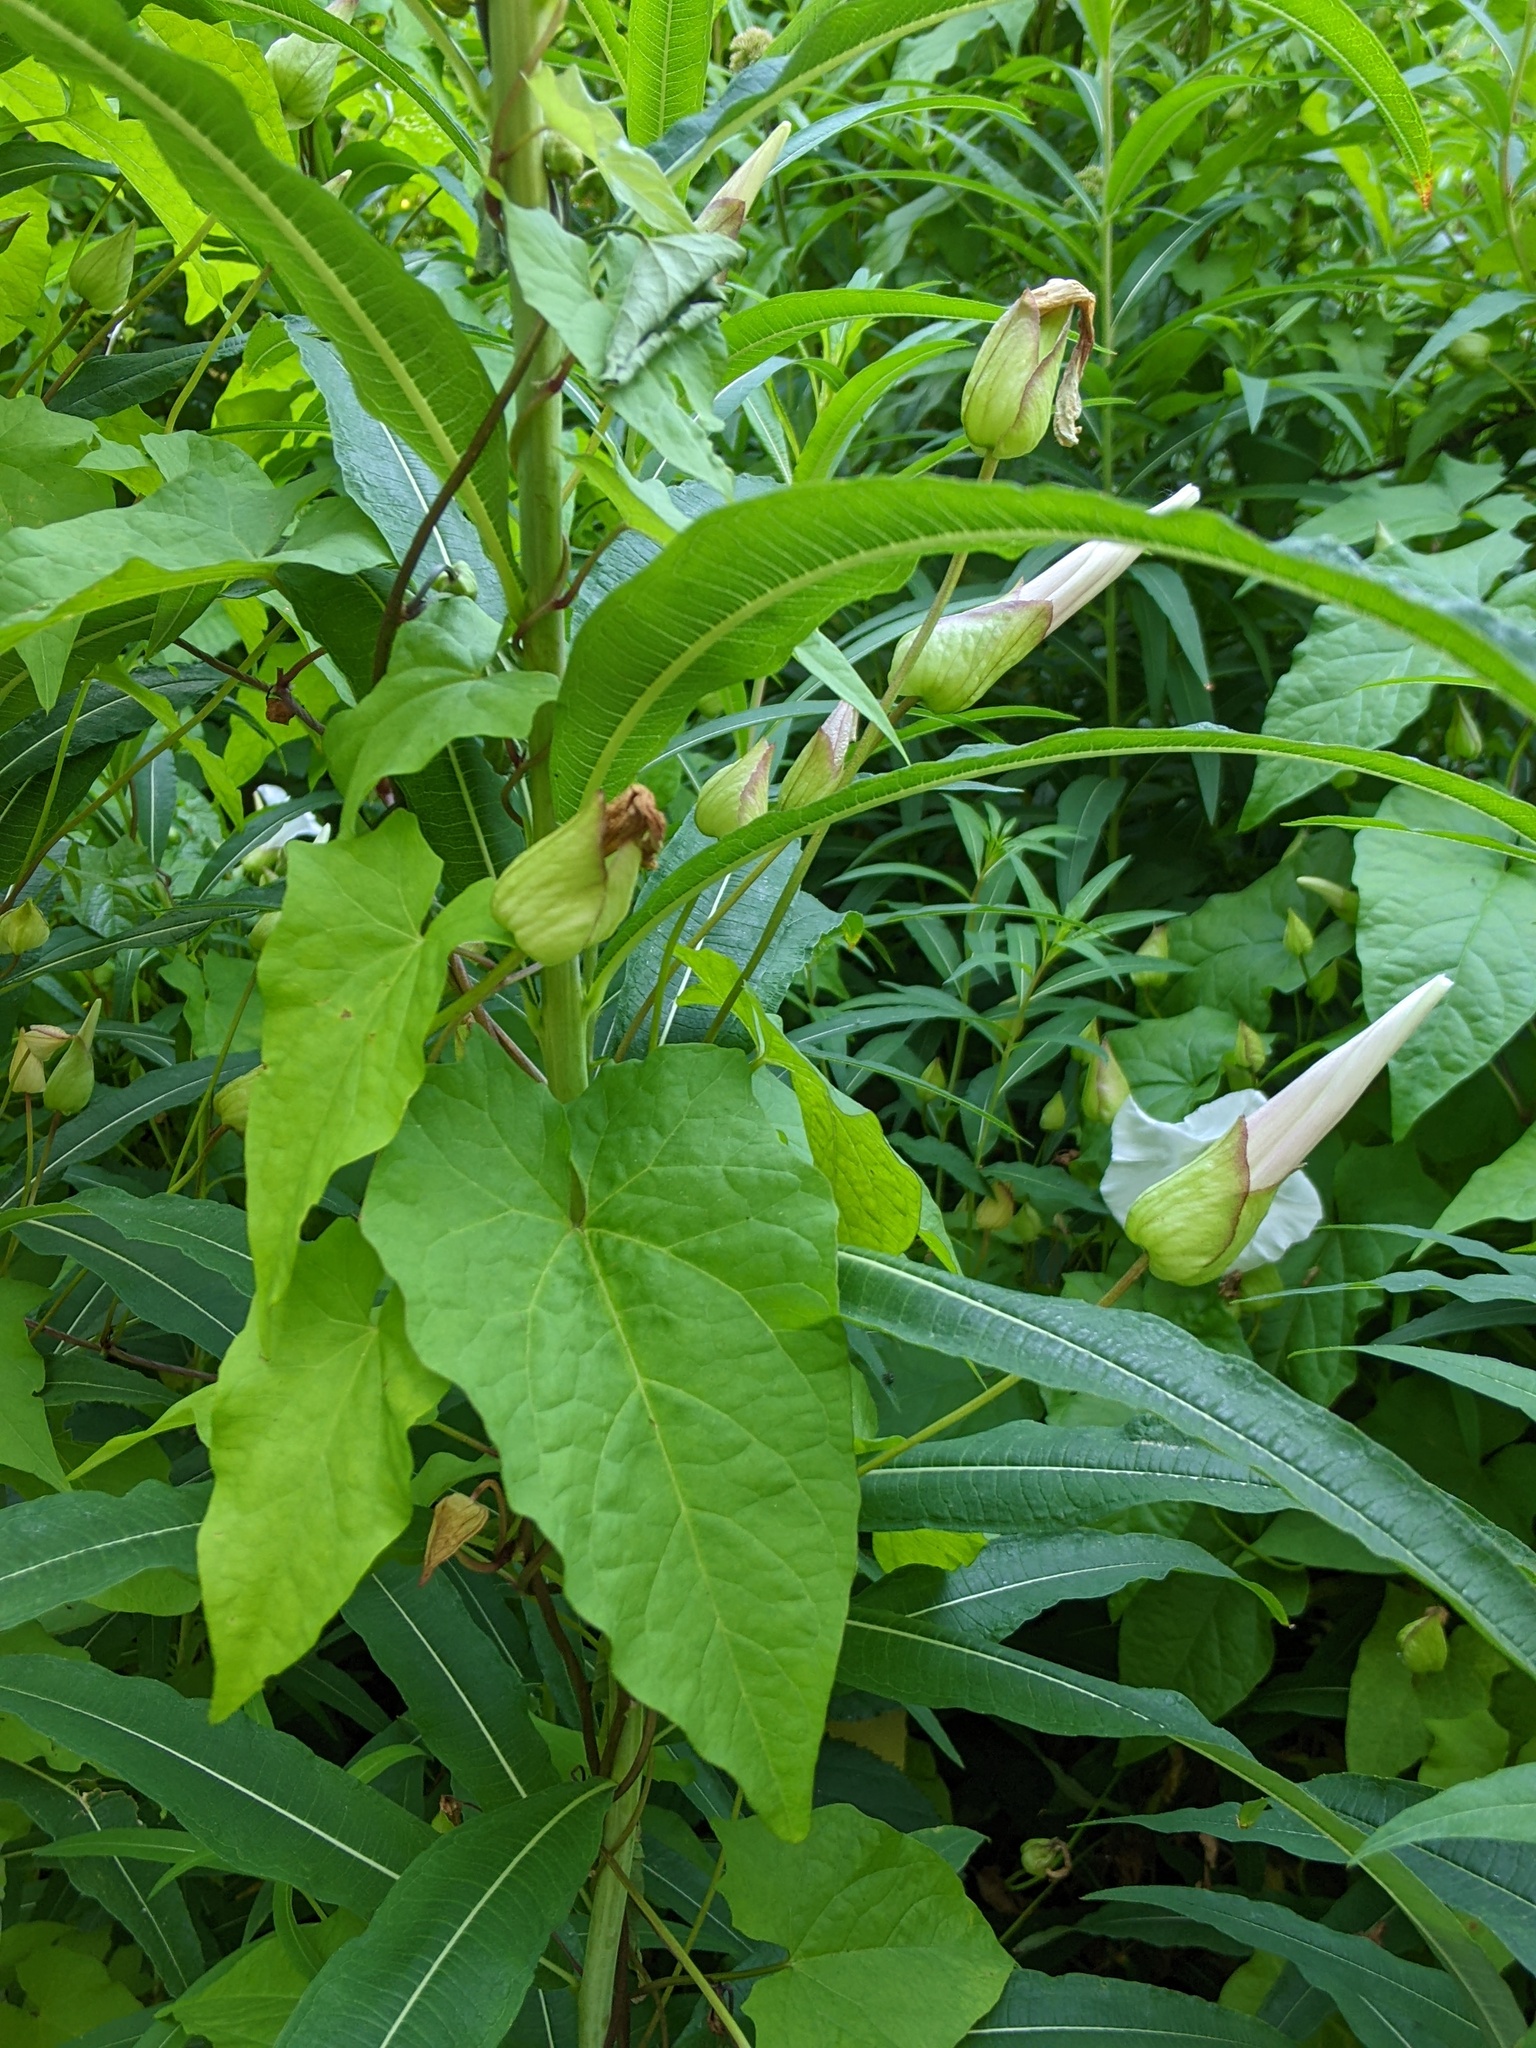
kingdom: Plantae
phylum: Tracheophyta
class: Magnoliopsida
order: Solanales
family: Convolvulaceae
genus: Calystegia
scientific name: Calystegia silvatica
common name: Large bindweed
